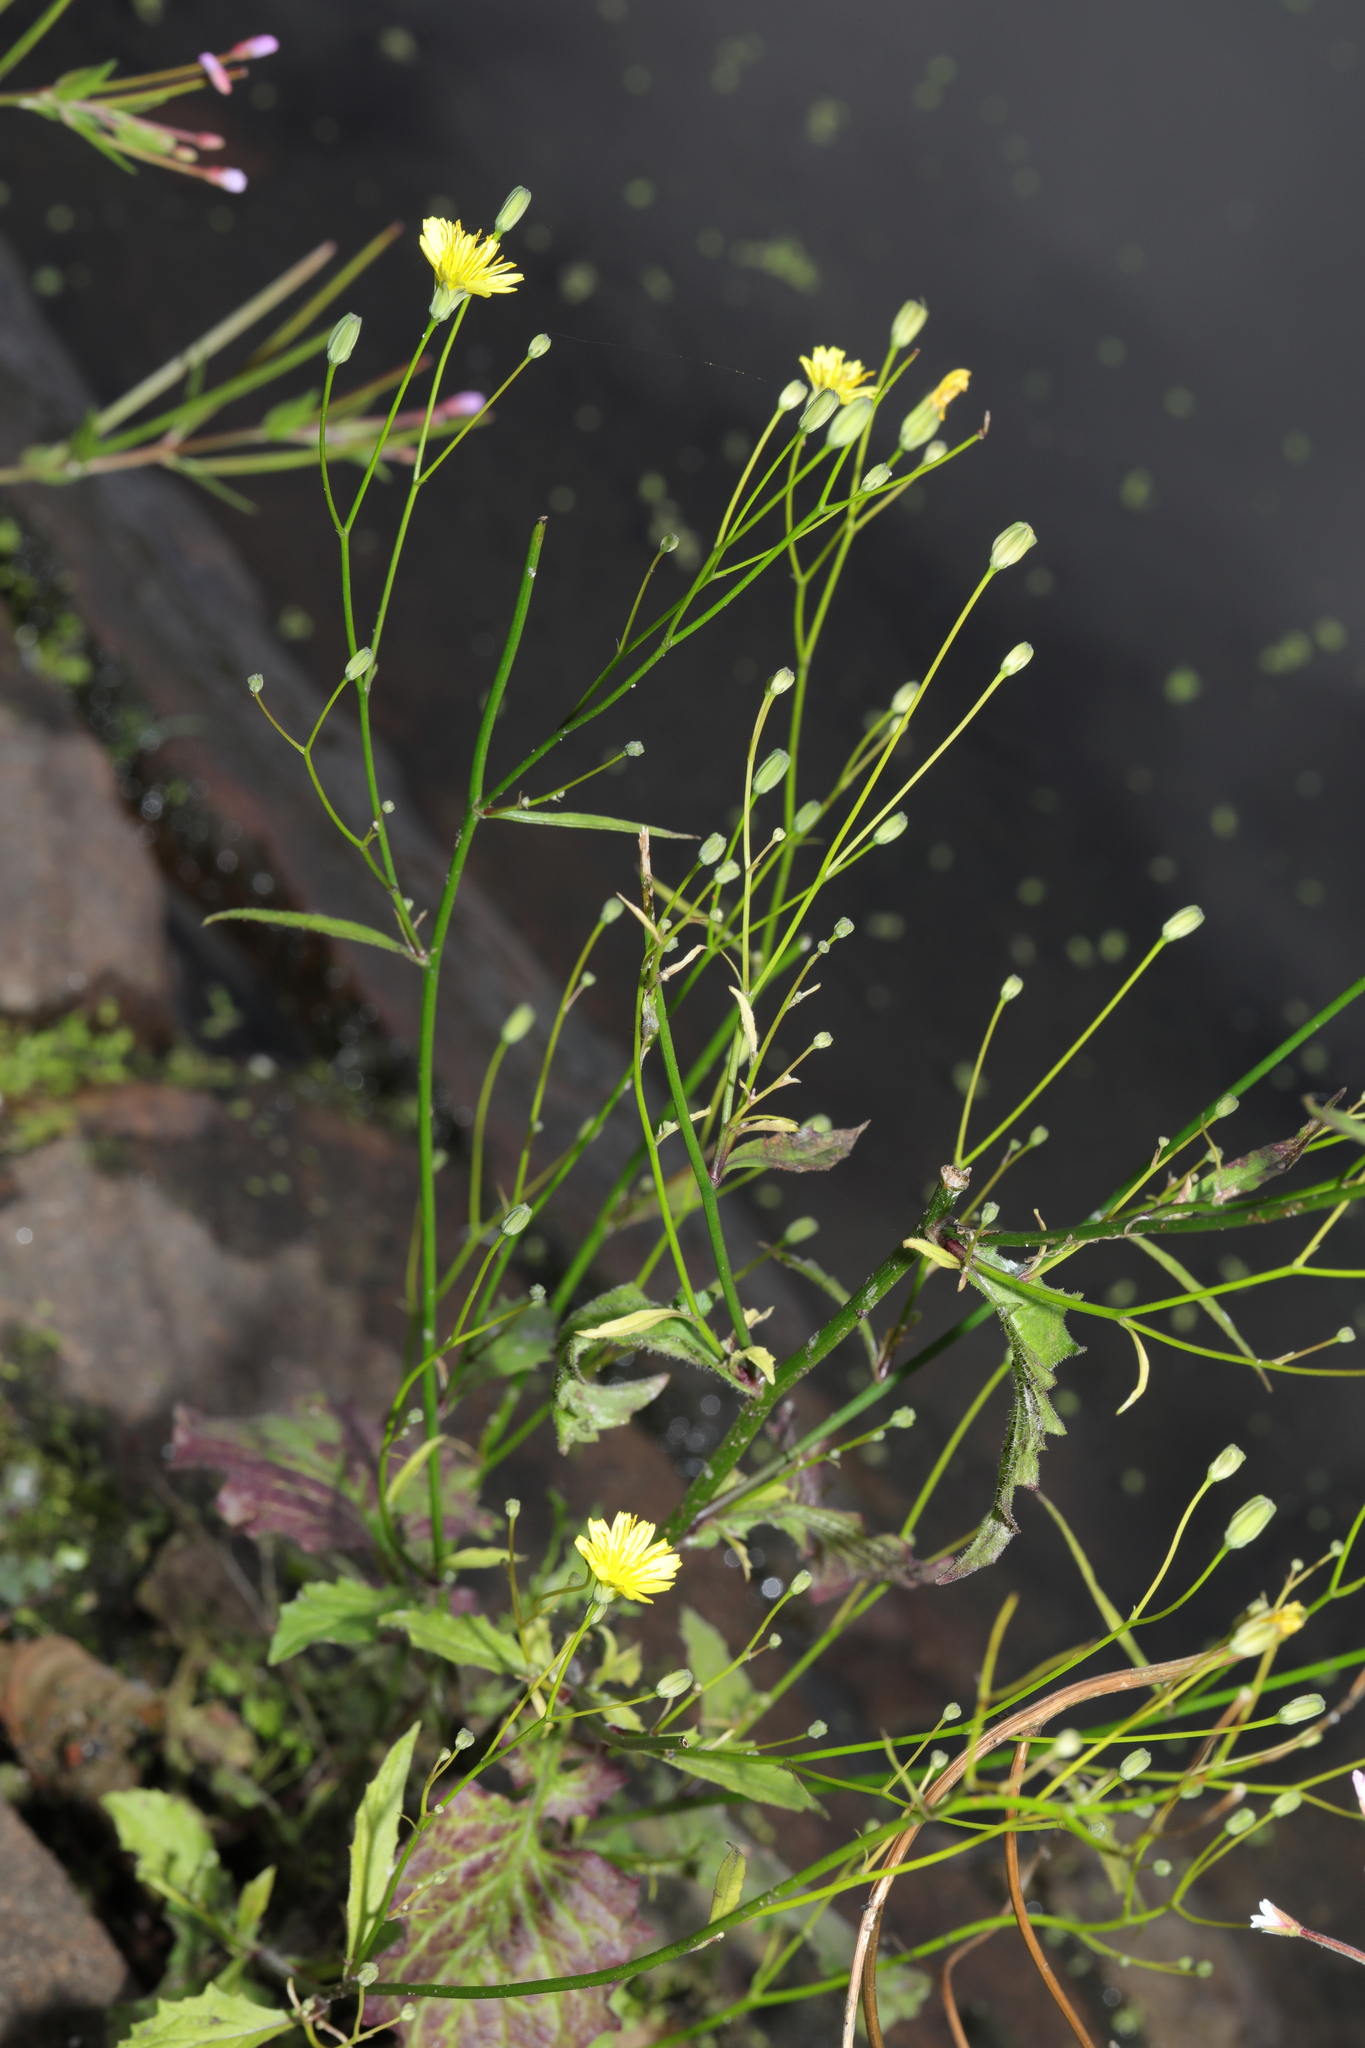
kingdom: Plantae
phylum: Tracheophyta
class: Magnoliopsida
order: Asterales
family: Asteraceae
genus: Lapsana
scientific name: Lapsana communis
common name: Nipplewort
